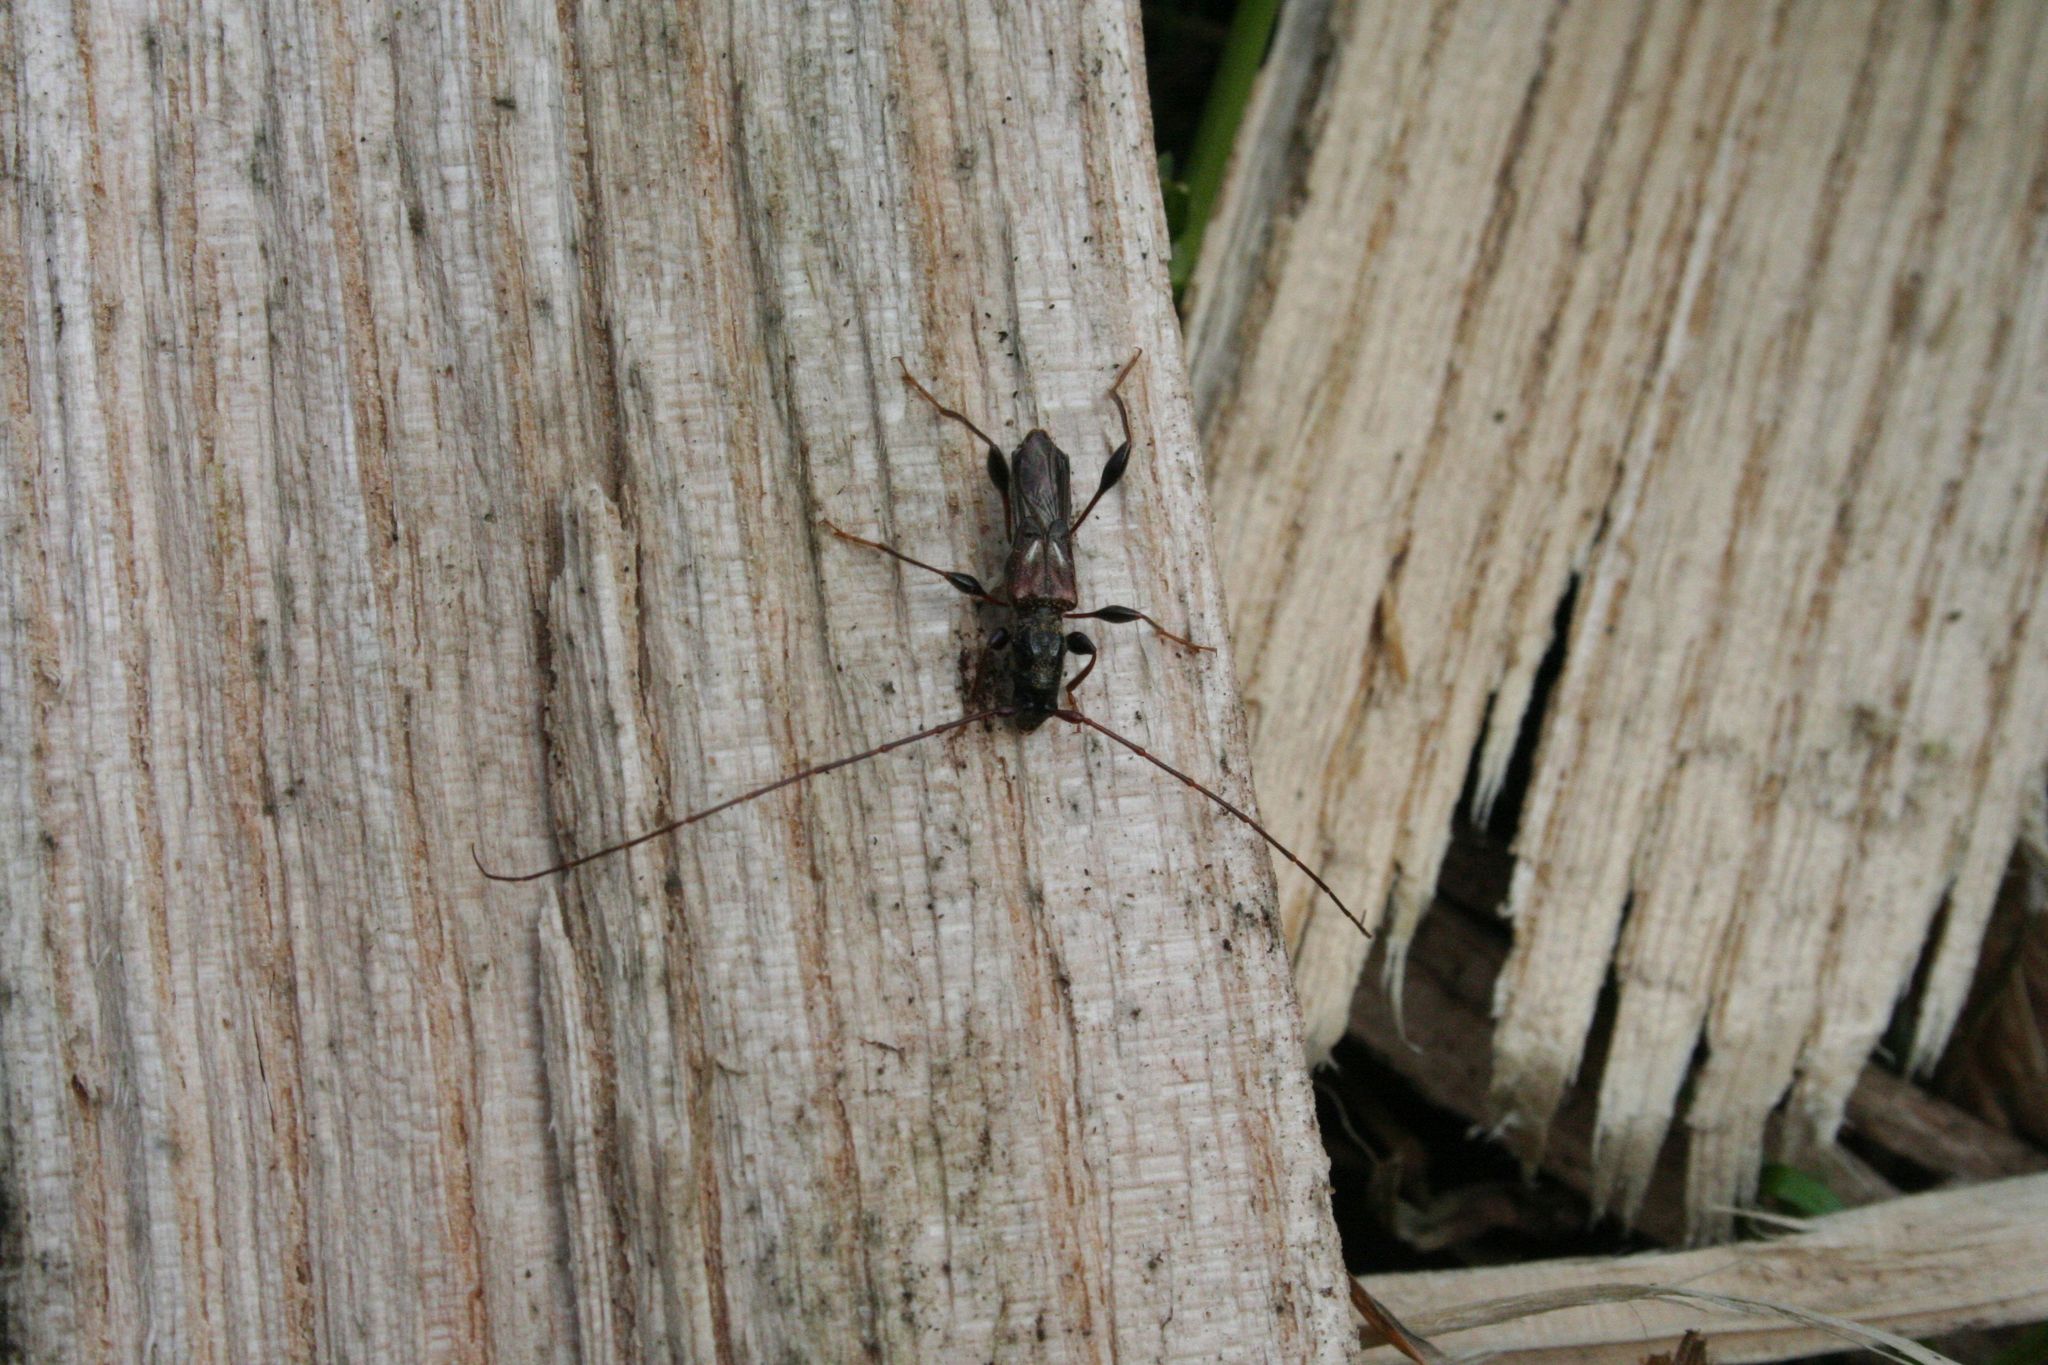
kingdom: Animalia
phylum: Arthropoda
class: Insecta
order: Coleoptera
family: Cerambycidae
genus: Molorchus
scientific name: Molorchus minor
